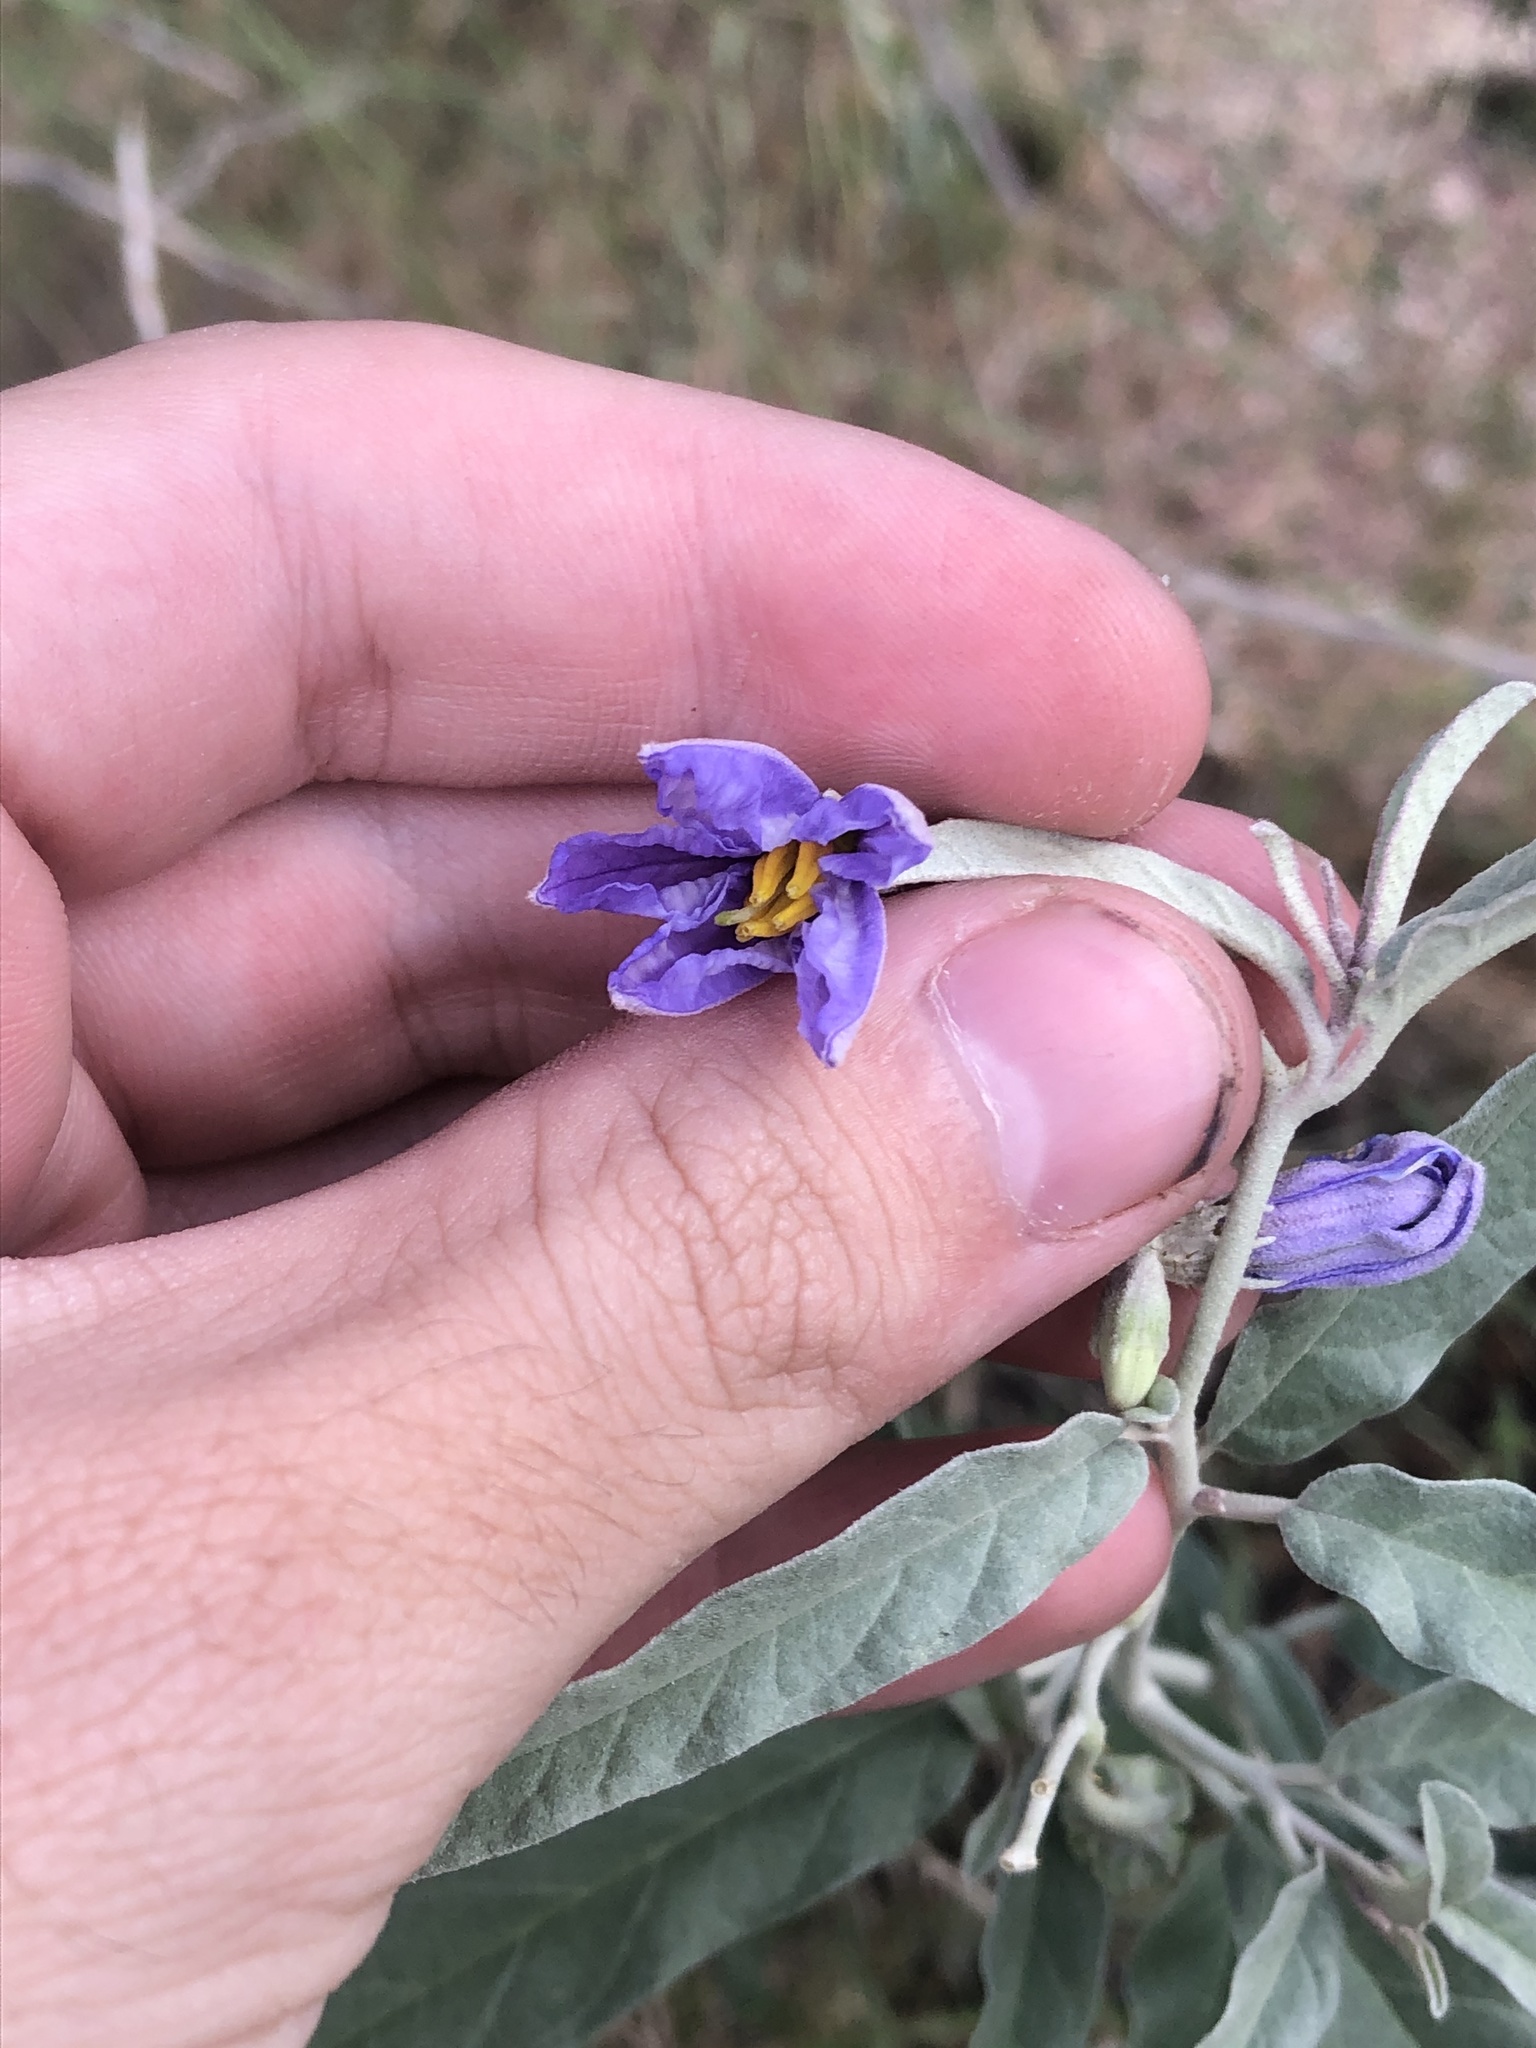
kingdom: Plantae
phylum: Tracheophyta
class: Magnoliopsida
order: Solanales
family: Solanaceae
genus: Solanum
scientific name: Solanum elaeagnifolium
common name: Silverleaf nightshade
